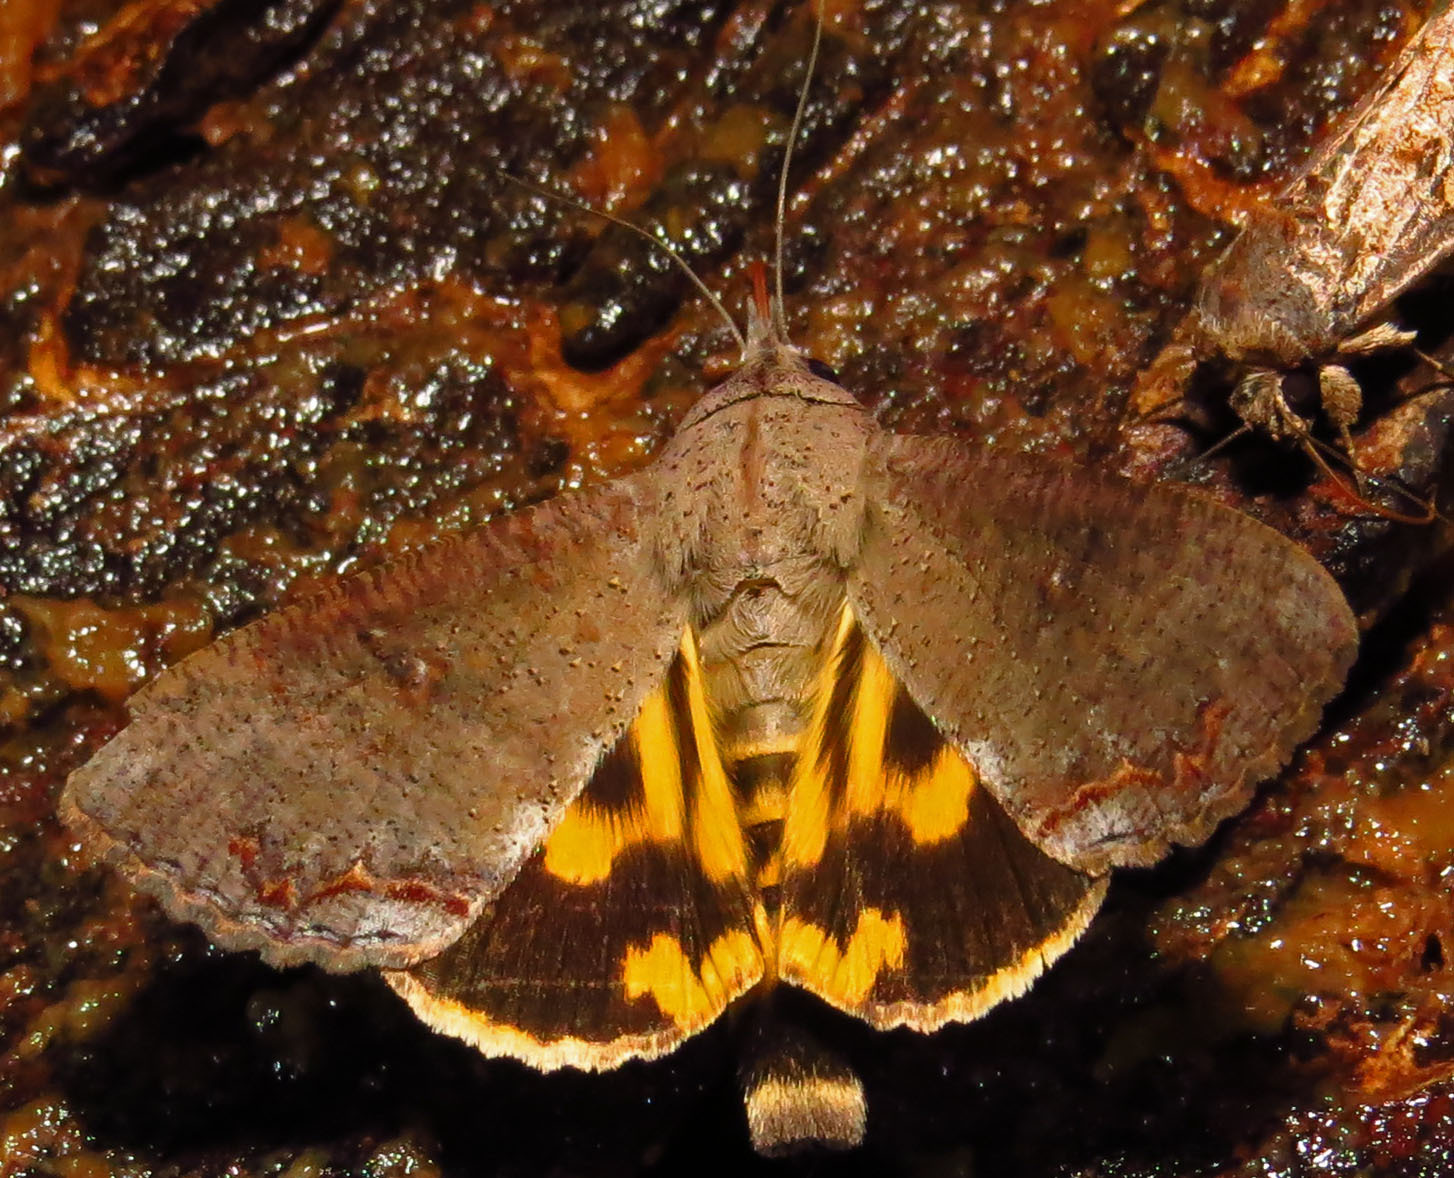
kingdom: Animalia
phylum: Arthropoda
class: Insecta
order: Lepidoptera
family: Erebidae
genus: Hypocala
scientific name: Hypocala andremona
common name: Hypocala moth
